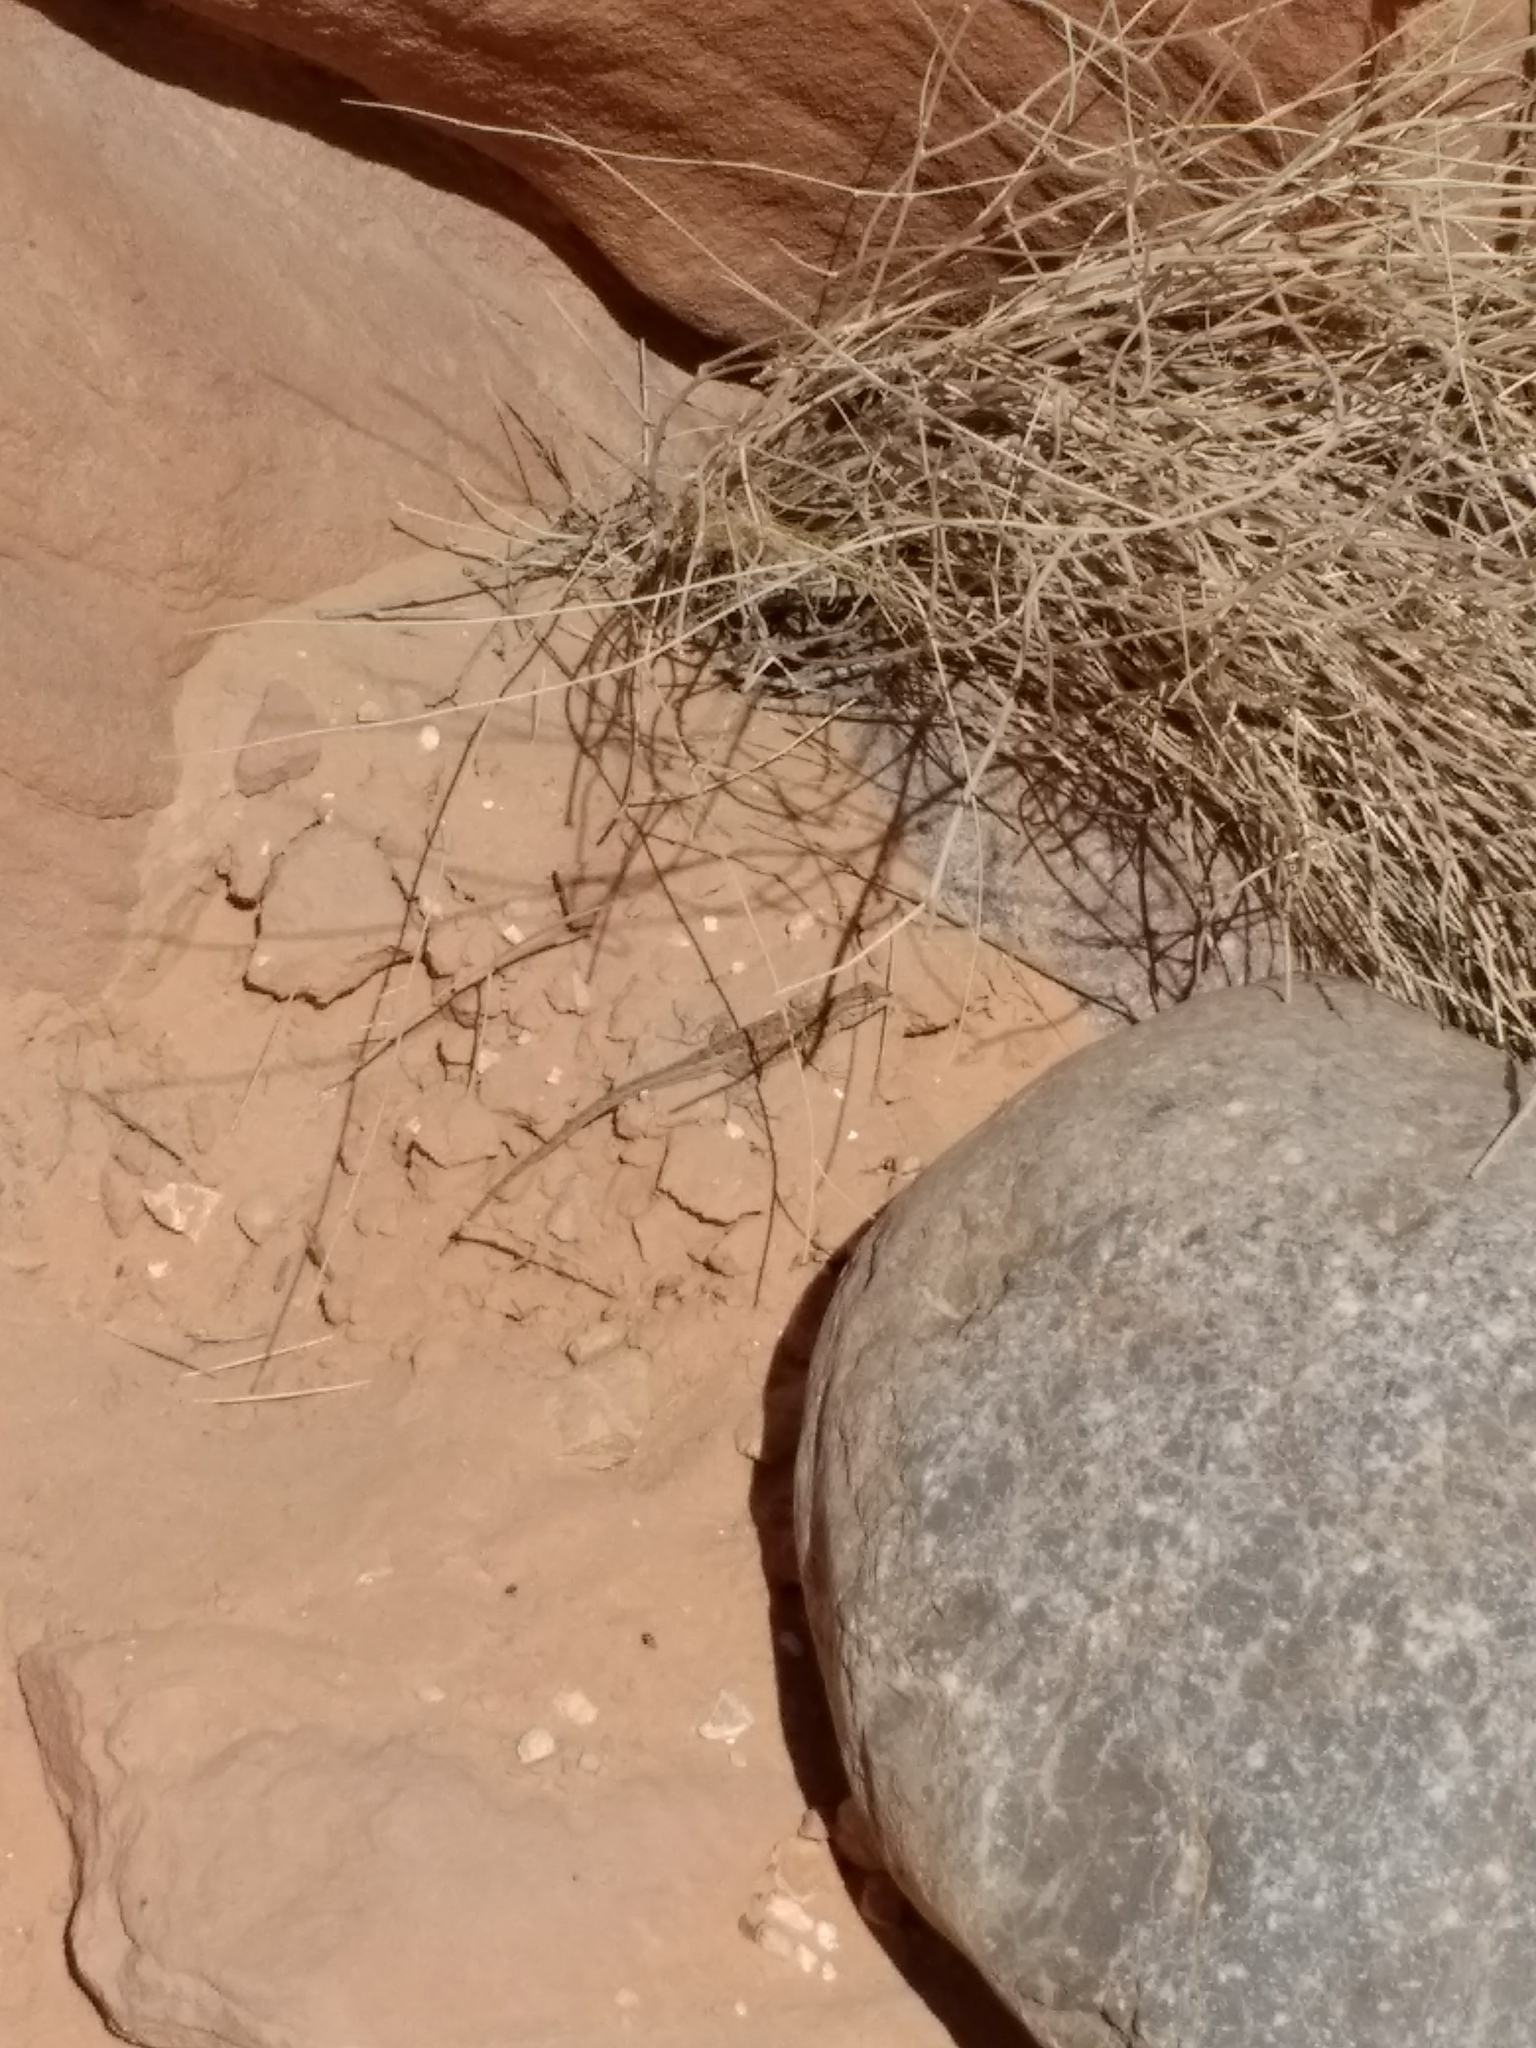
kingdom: Animalia
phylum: Chordata
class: Squamata
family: Phrynosomatidae
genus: Uta
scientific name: Uta stansburiana
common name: Side-blotched lizard
